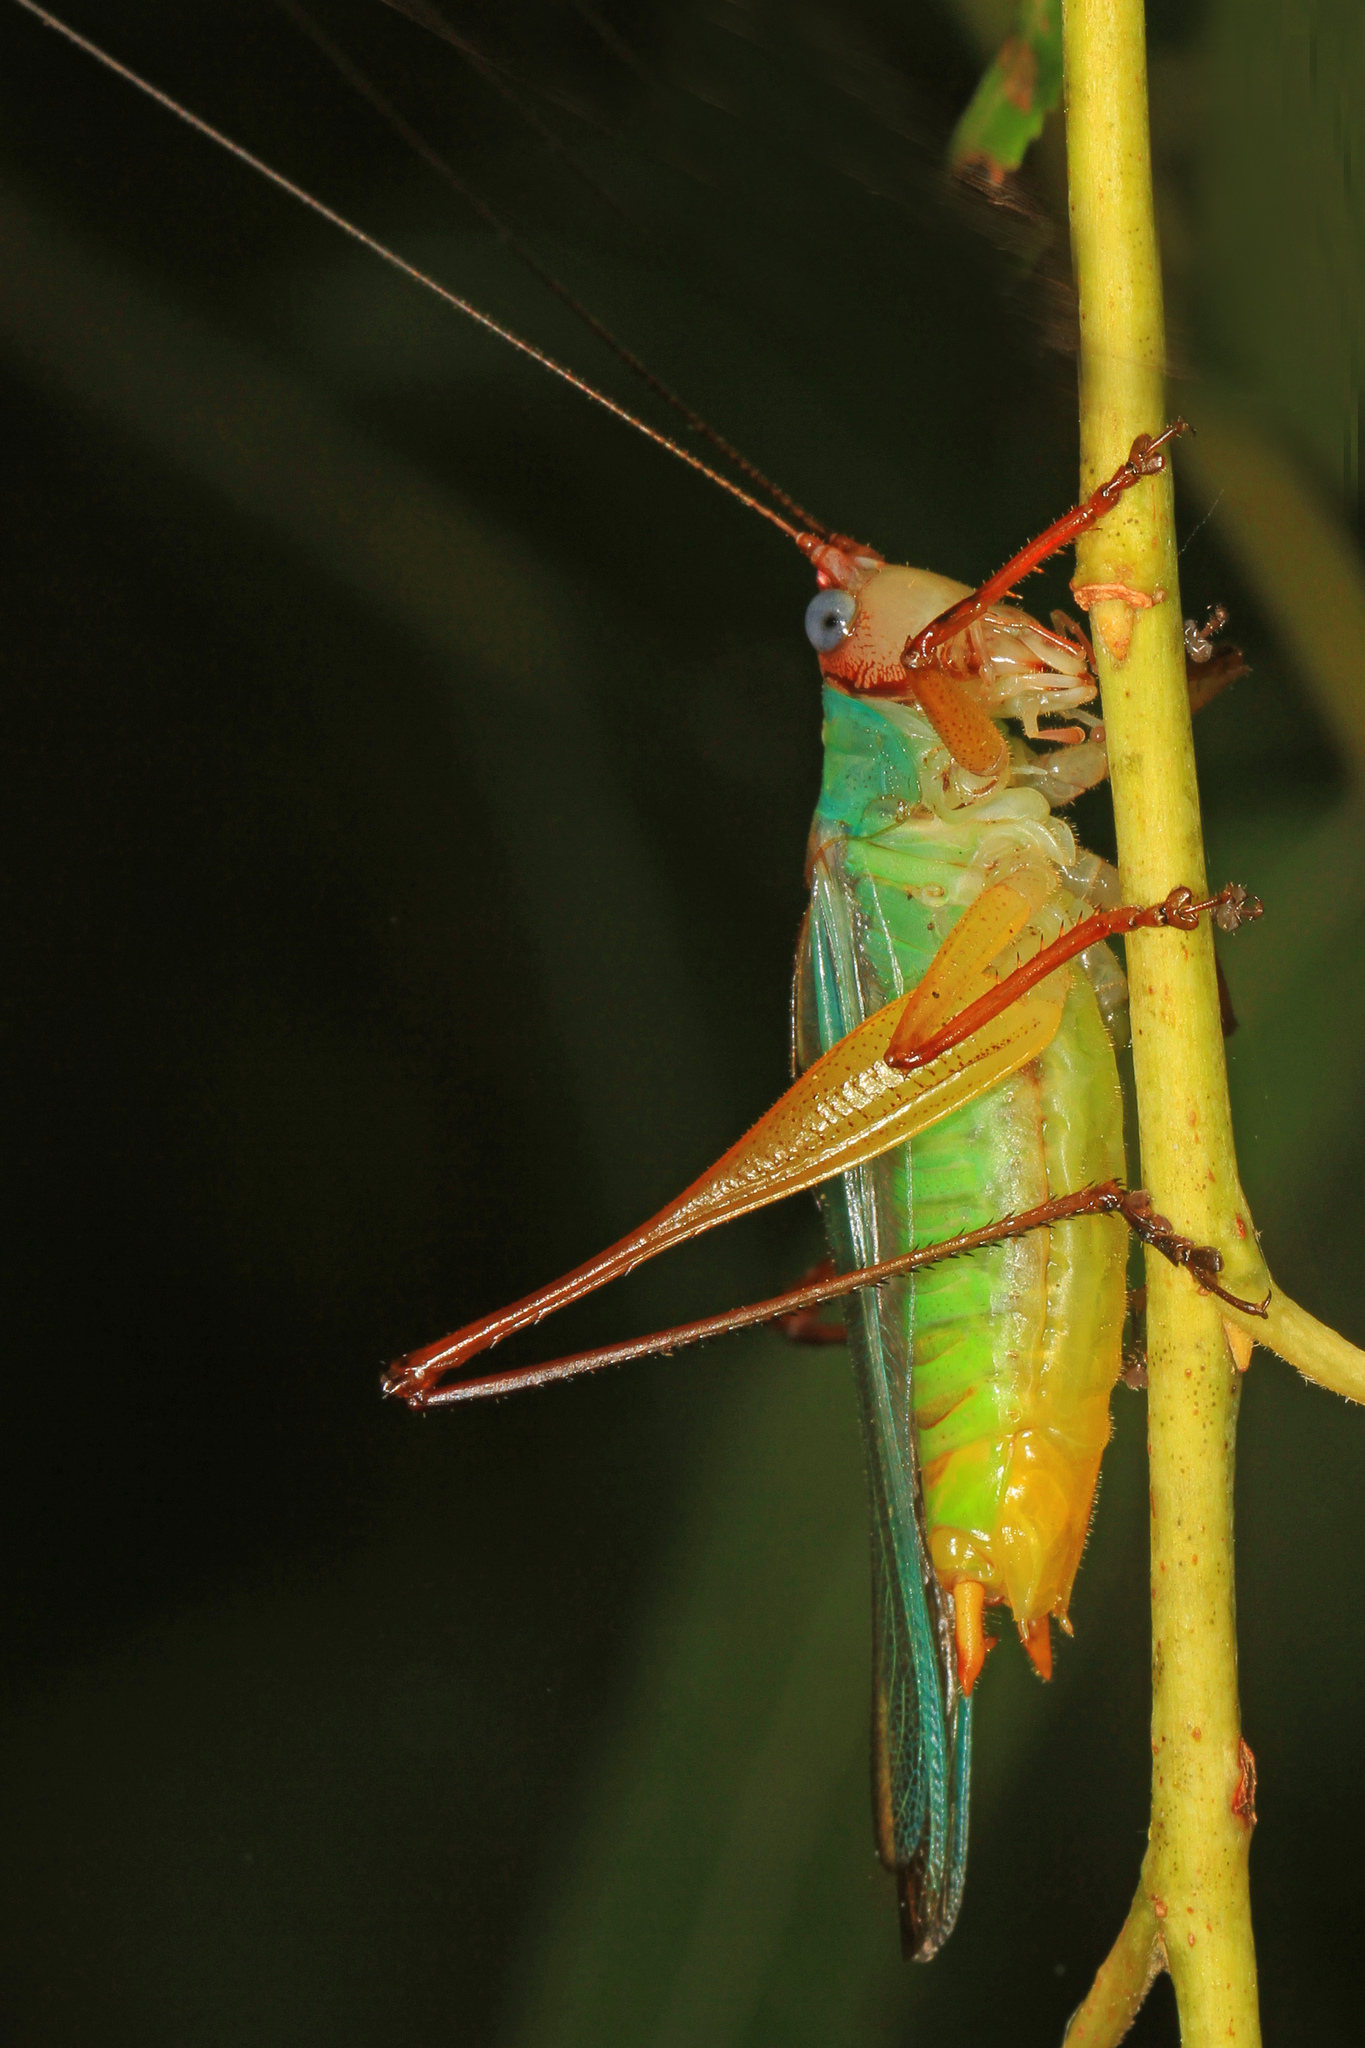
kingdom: Animalia
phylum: Arthropoda
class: Insecta
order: Orthoptera
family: Tettigoniidae
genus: Orchelimum
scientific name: Orchelimum pulchellum
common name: Handsome meadow katydid
